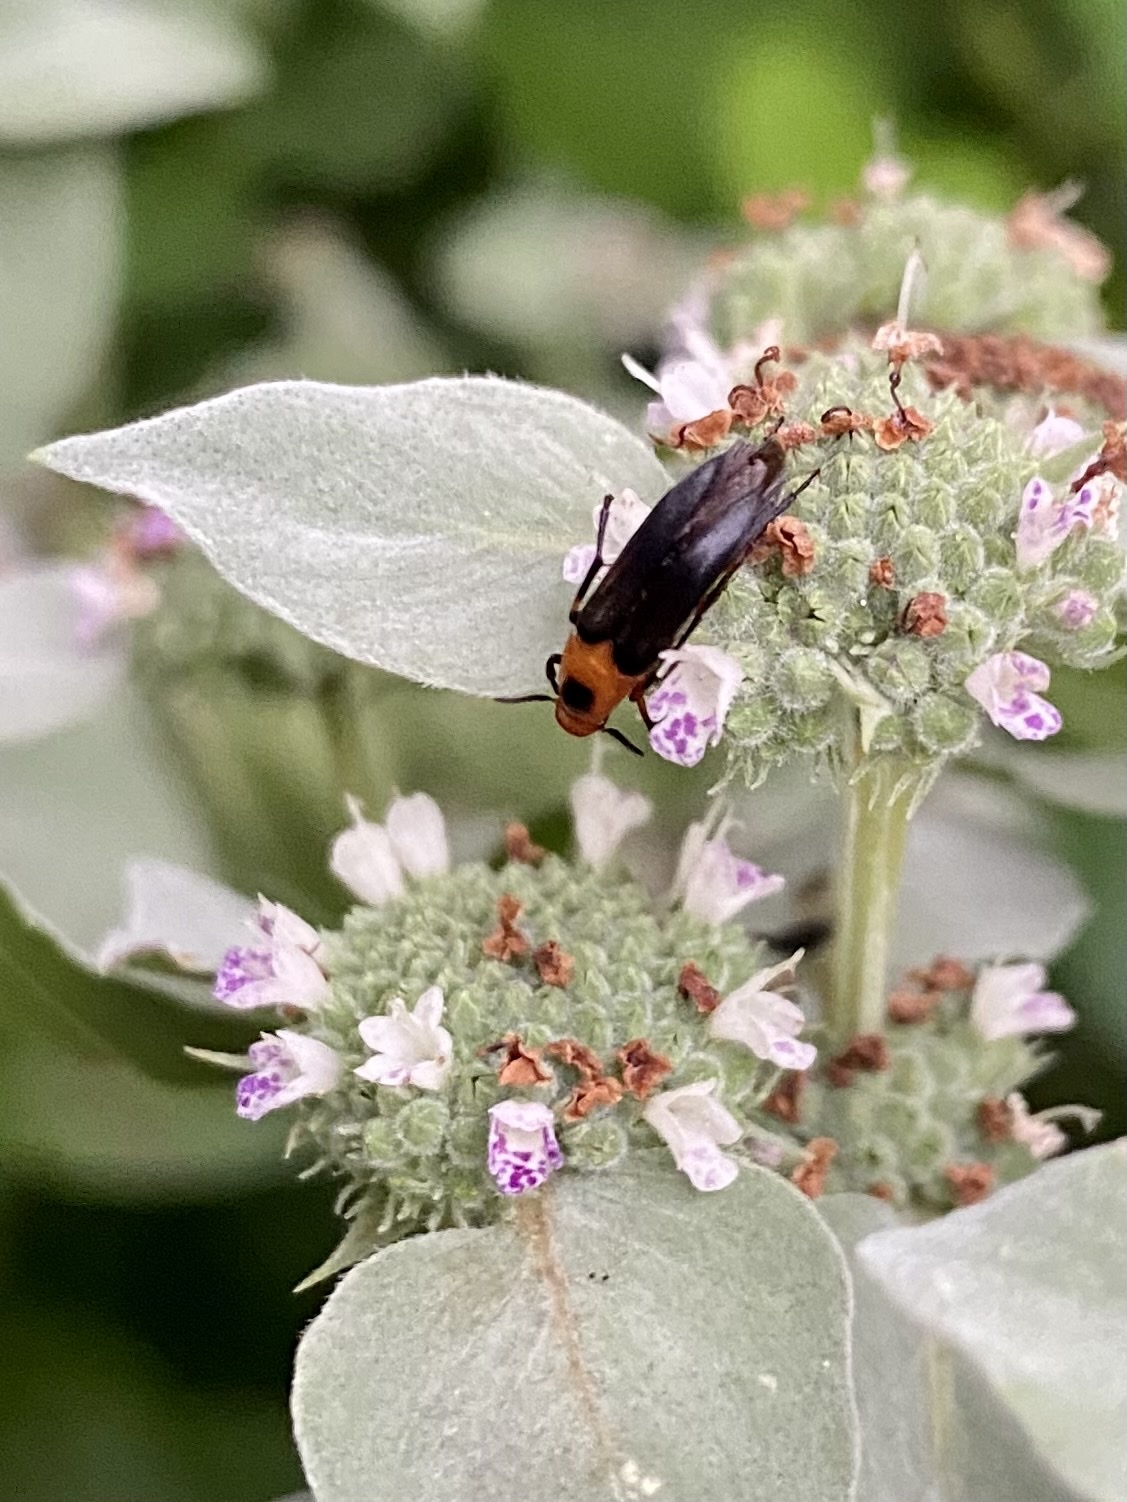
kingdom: Animalia
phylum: Arthropoda
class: Insecta
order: Coleoptera
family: Ripiphoridae
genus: Macrosiagon
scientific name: Macrosiagon limbatum
